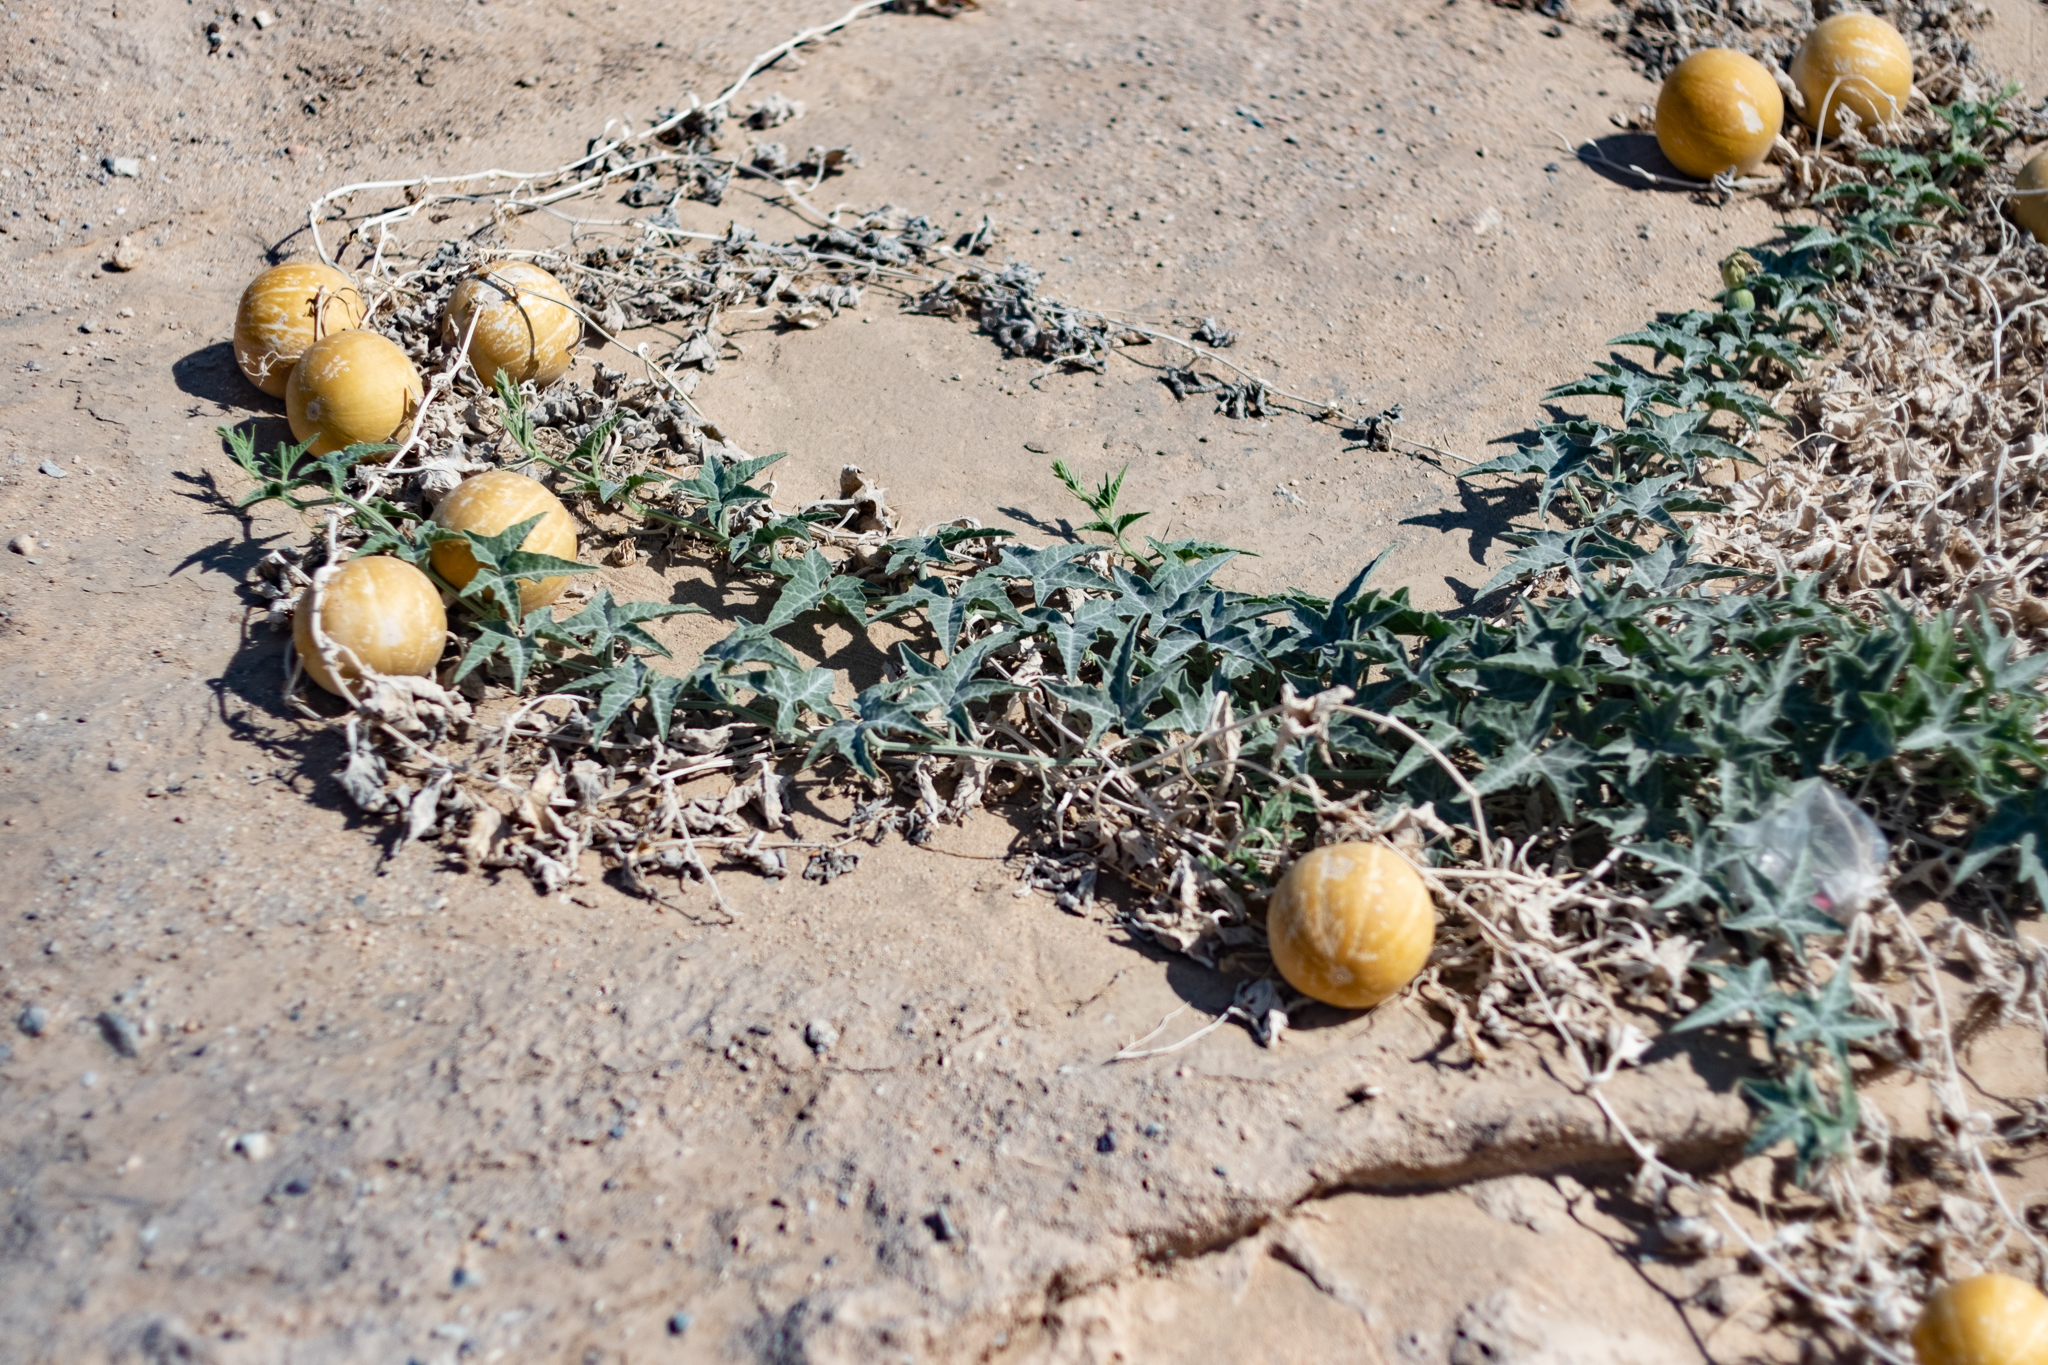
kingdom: Plantae
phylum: Tracheophyta
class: Magnoliopsida
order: Cucurbitales
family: Cucurbitaceae
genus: Cucurbita
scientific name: Cucurbita palmata
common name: Coyote-melon
